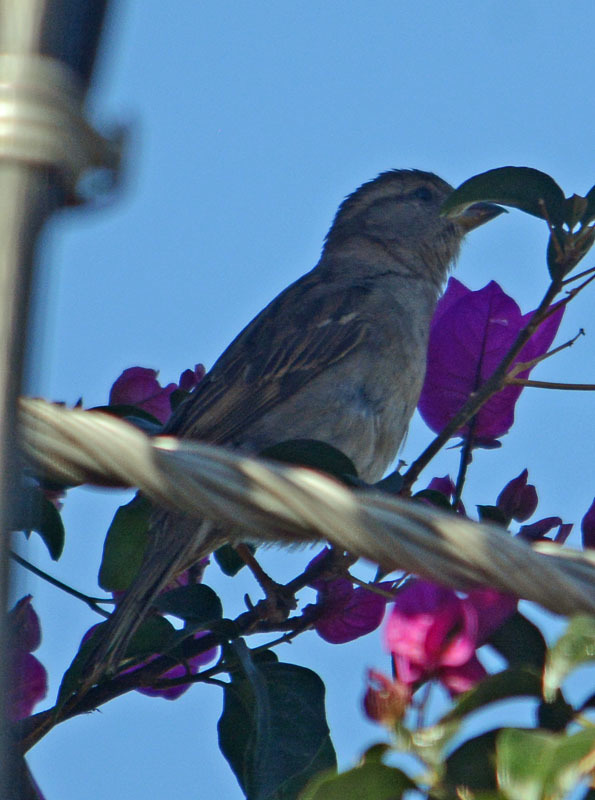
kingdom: Animalia
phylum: Chordata
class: Aves
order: Passeriformes
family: Passeridae
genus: Passer
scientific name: Passer domesticus
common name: House sparrow
